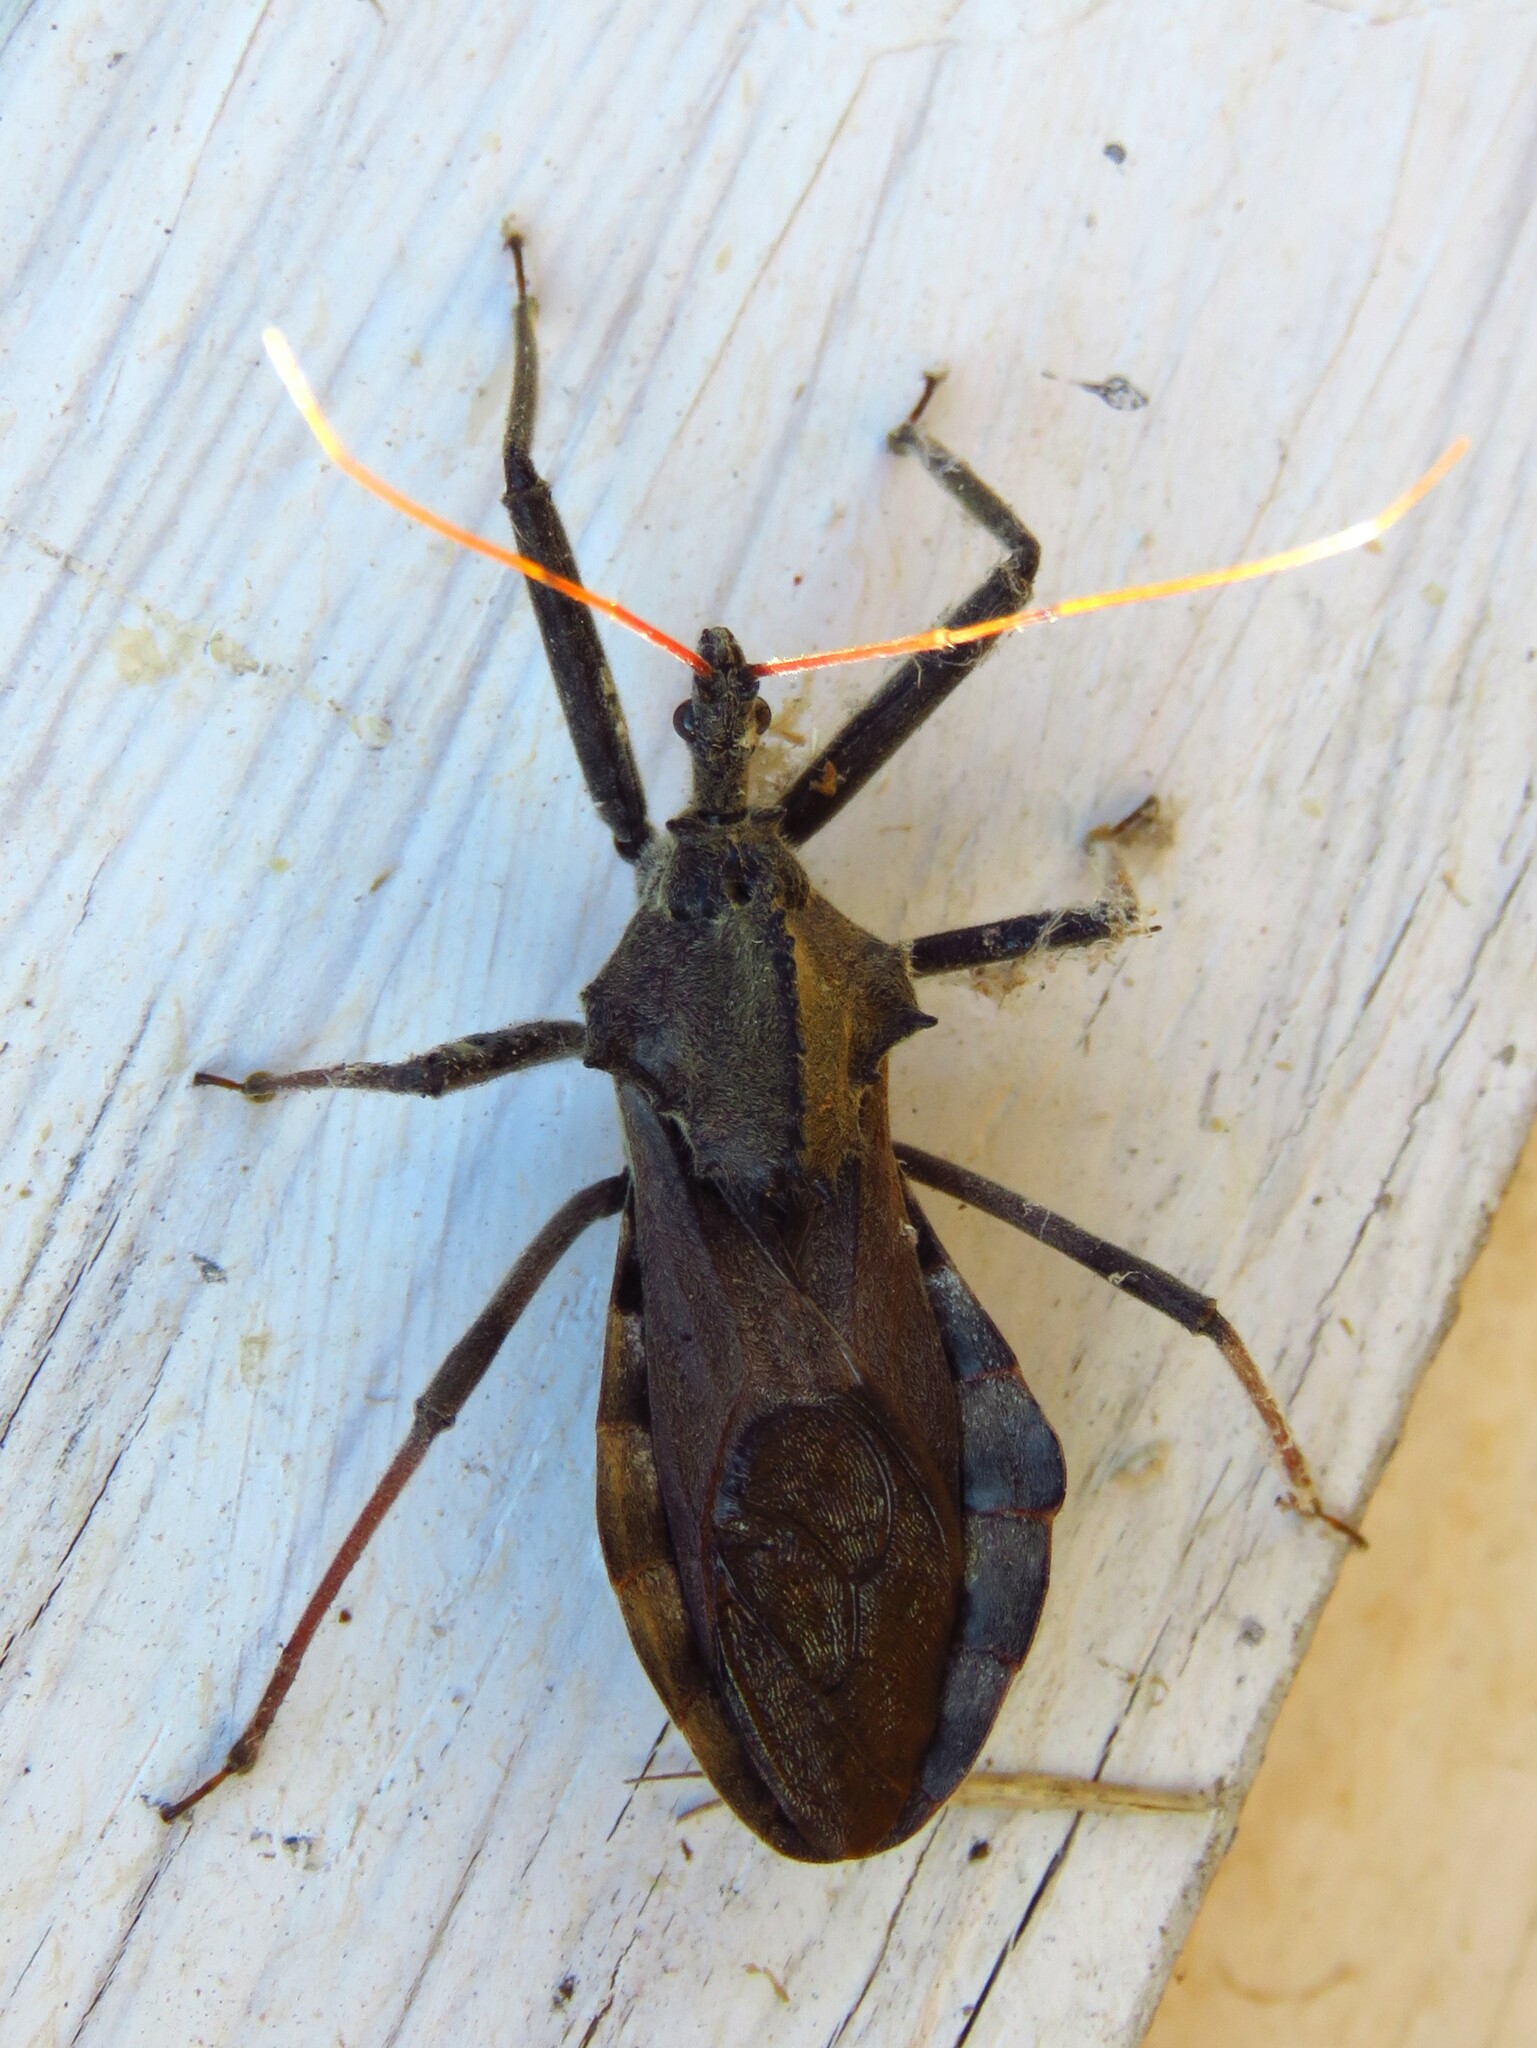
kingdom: Animalia
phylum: Arthropoda
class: Insecta
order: Hemiptera
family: Reduviidae
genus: Arilus
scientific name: Arilus cristatus
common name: North american wheel bug
